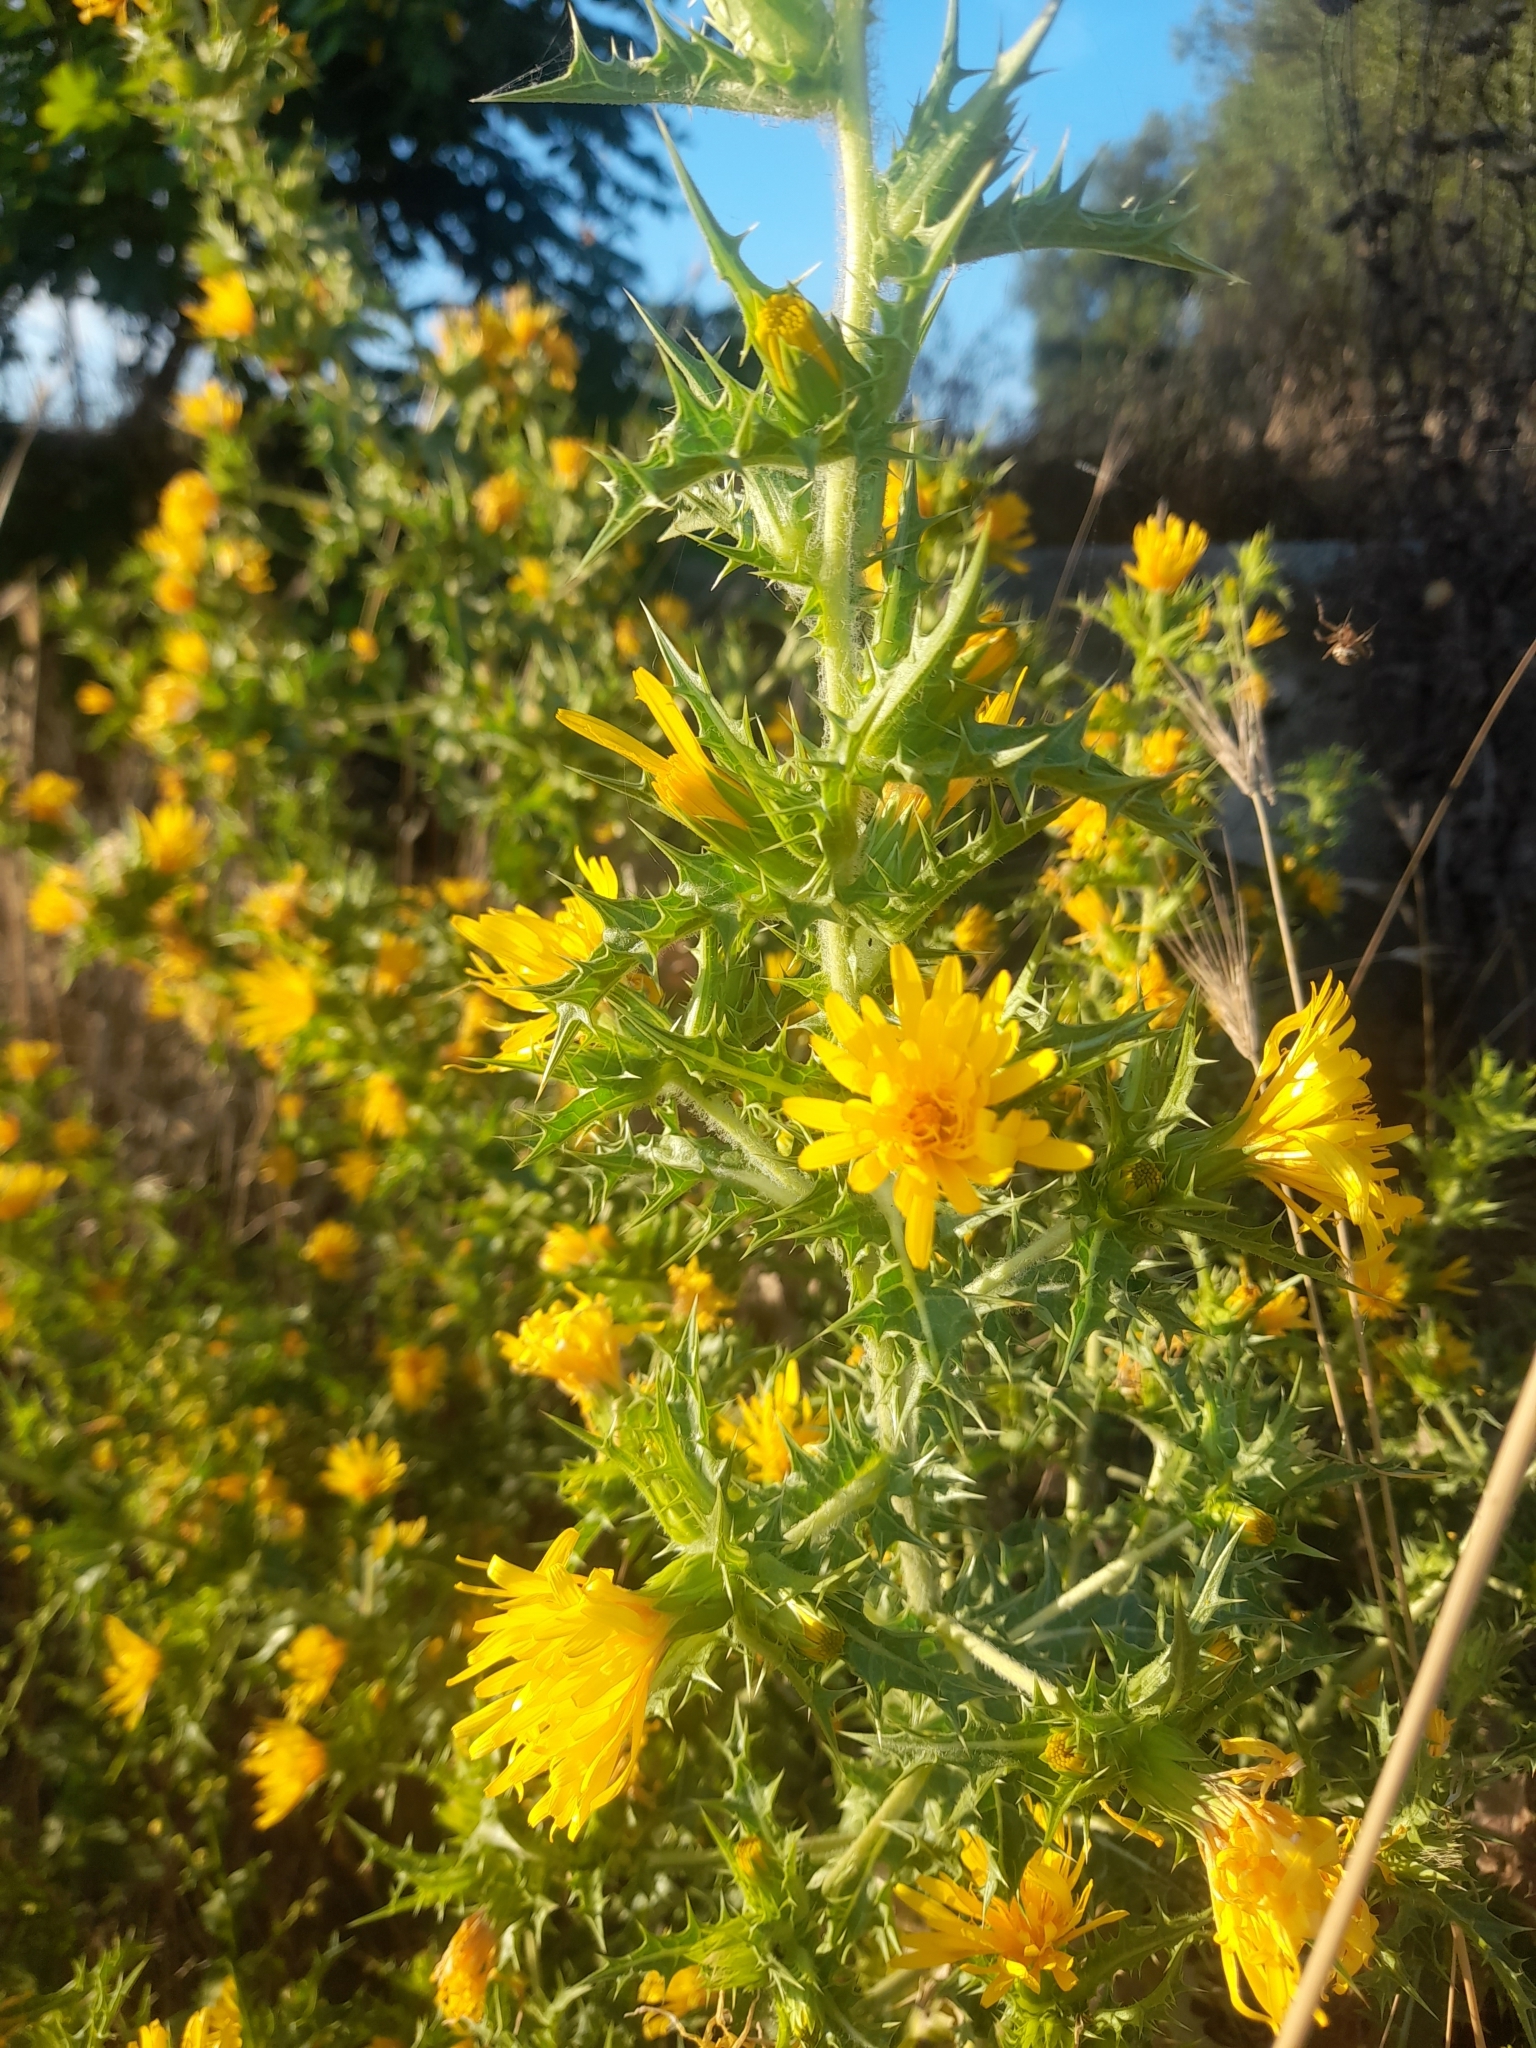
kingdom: Plantae
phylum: Tracheophyta
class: Magnoliopsida
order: Asterales
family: Asteraceae
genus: Scolymus
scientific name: Scolymus hispanicus
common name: Golden thistle
